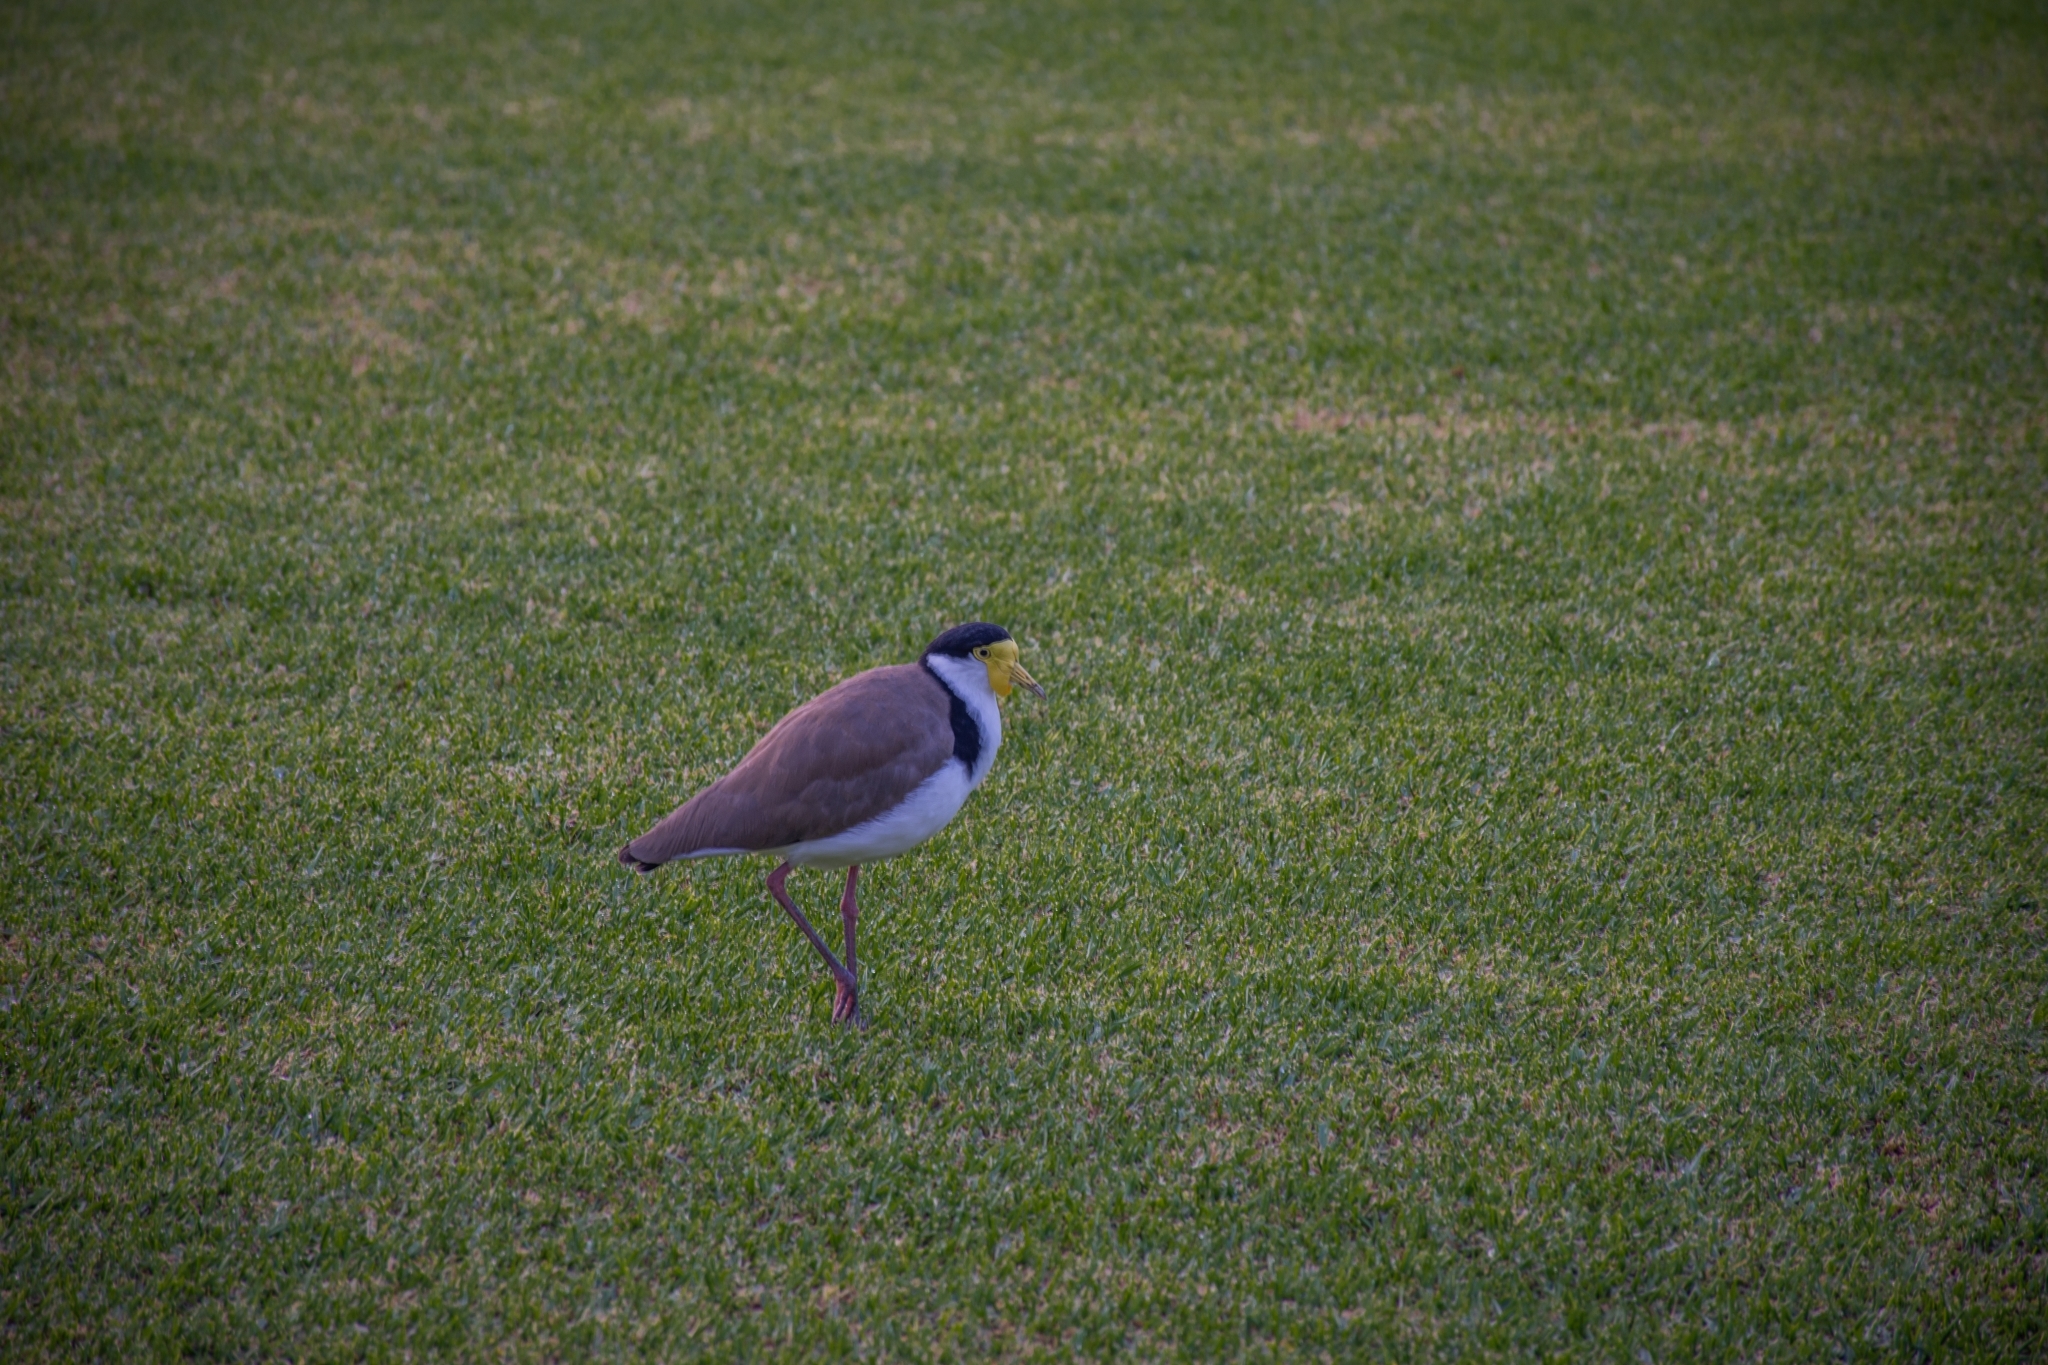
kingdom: Animalia
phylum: Chordata
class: Aves
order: Charadriiformes
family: Charadriidae
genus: Vanellus
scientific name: Vanellus miles
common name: Masked lapwing
